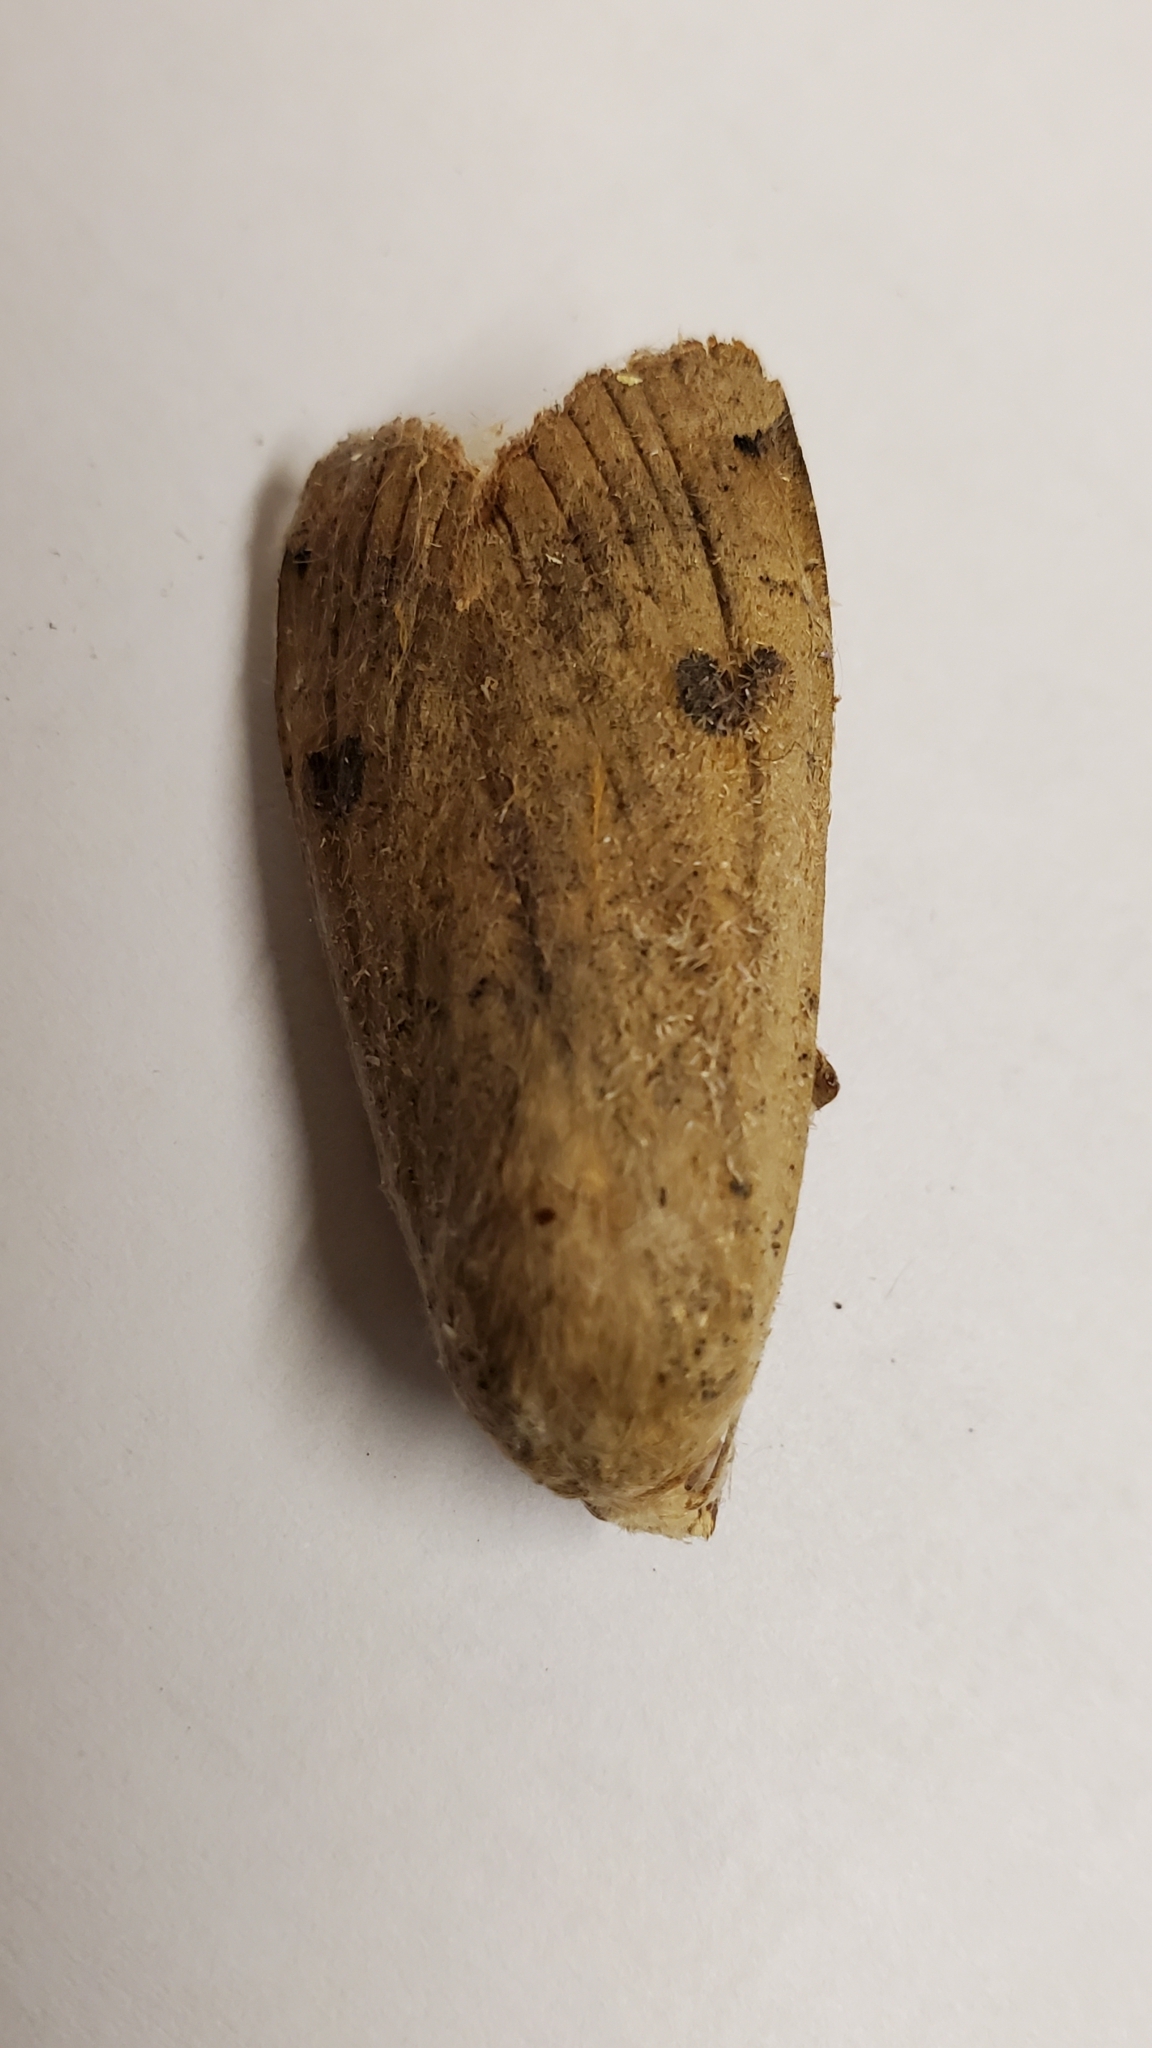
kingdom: Animalia
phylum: Arthropoda
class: Insecta
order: Lepidoptera
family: Noctuidae
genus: Noctua
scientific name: Noctua pronuba
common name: Large yellow underwing
